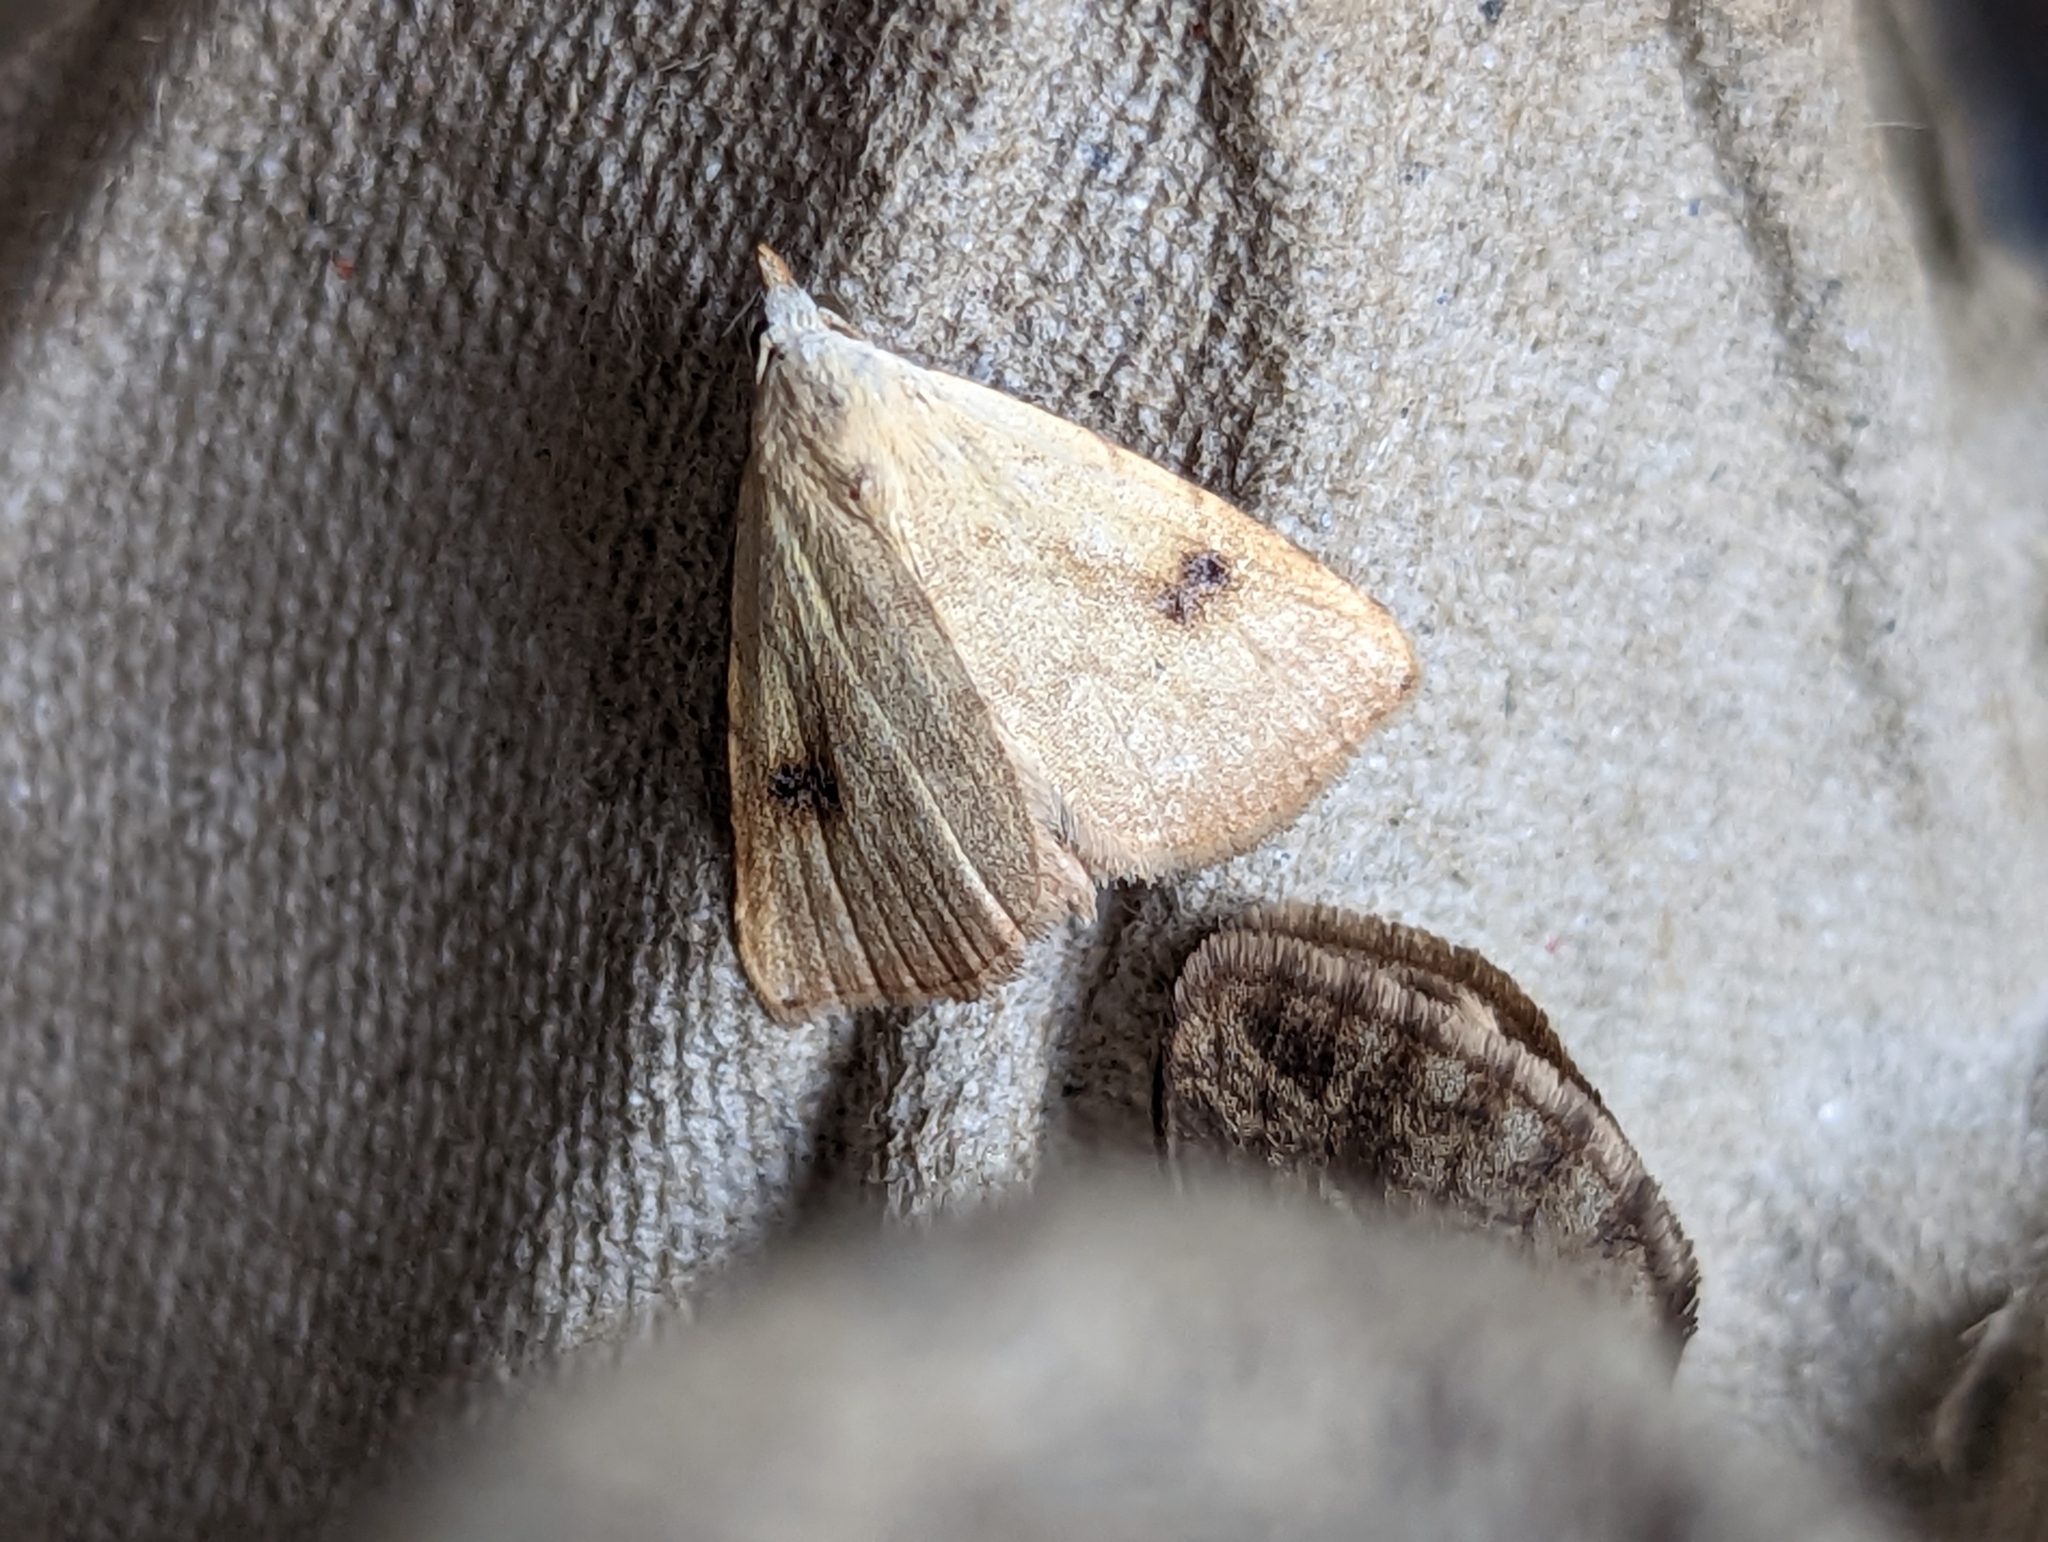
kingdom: Animalia
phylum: Arthropoda
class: Insecta
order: Lepidoptera
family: Erebidae
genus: Rivula
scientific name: Rivula sericealis
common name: Straw dot
